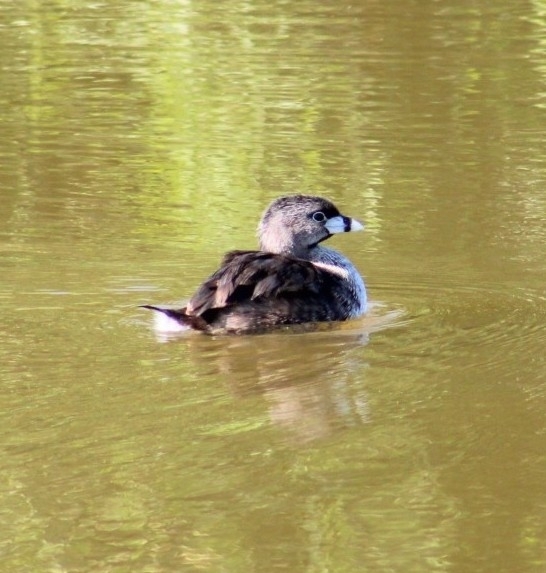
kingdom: Animalia
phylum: Chordata
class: Aves
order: Podicipediformes
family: Podicipedidae
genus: Podilymbus
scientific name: Podilymbus podiceps
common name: Pied-billed grebe
